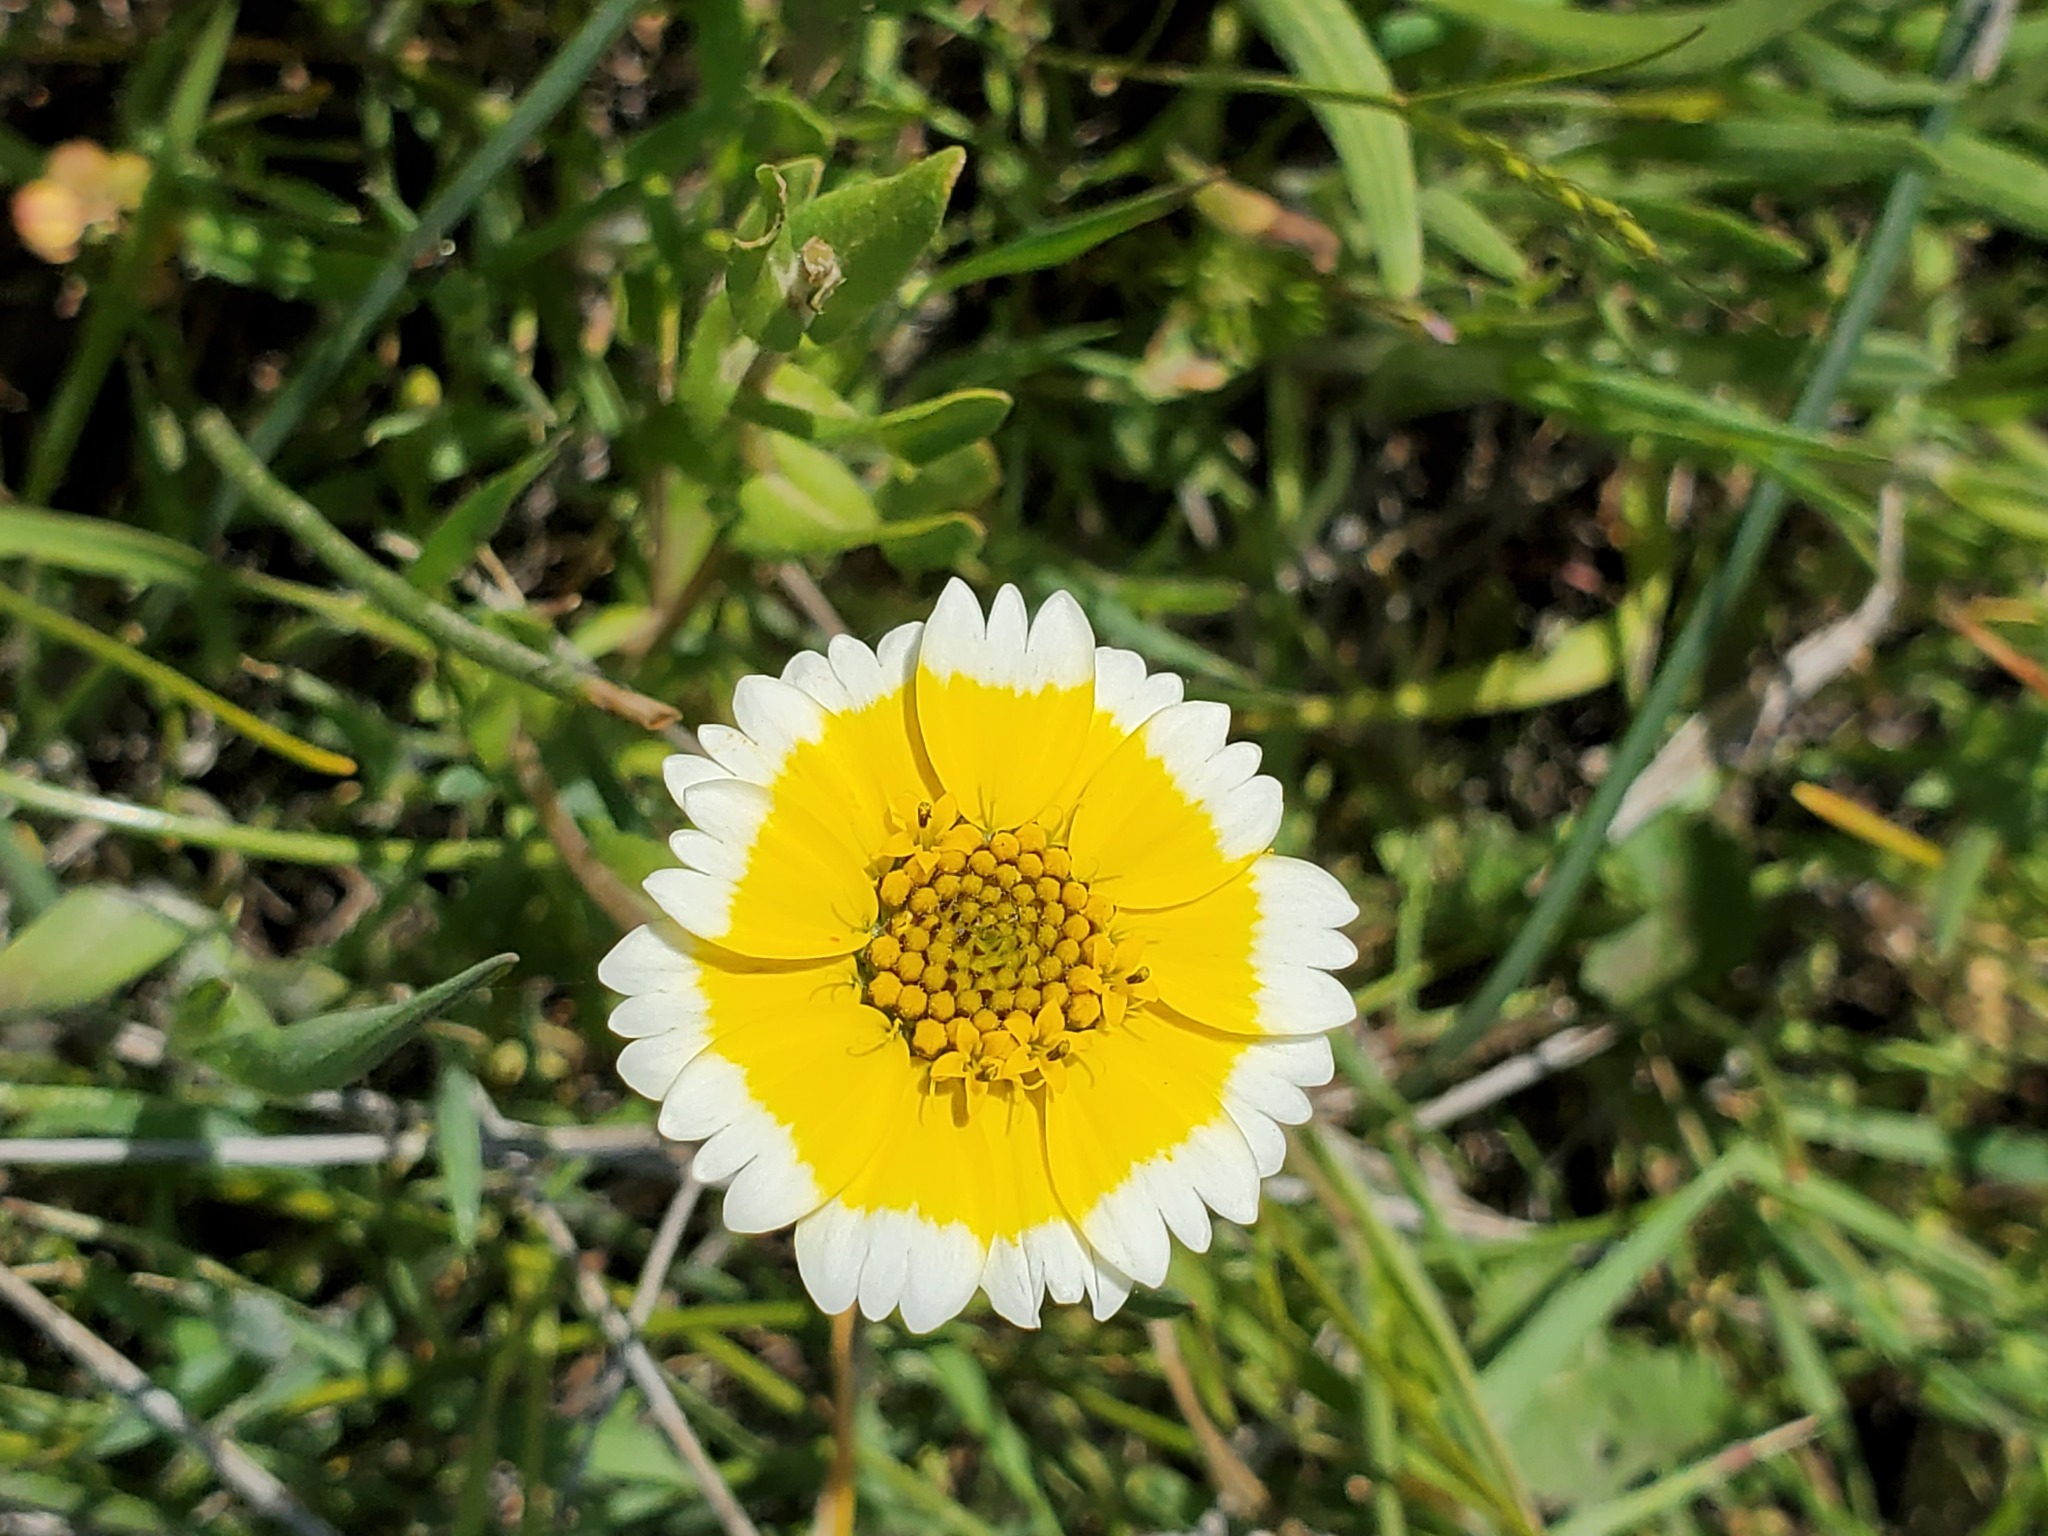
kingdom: Plantae
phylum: Tracheophyta
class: Magnoliopsida
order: Asterales
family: Asteraceae
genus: Layia
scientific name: Layia chrysanthemoides
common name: Smooth layia
